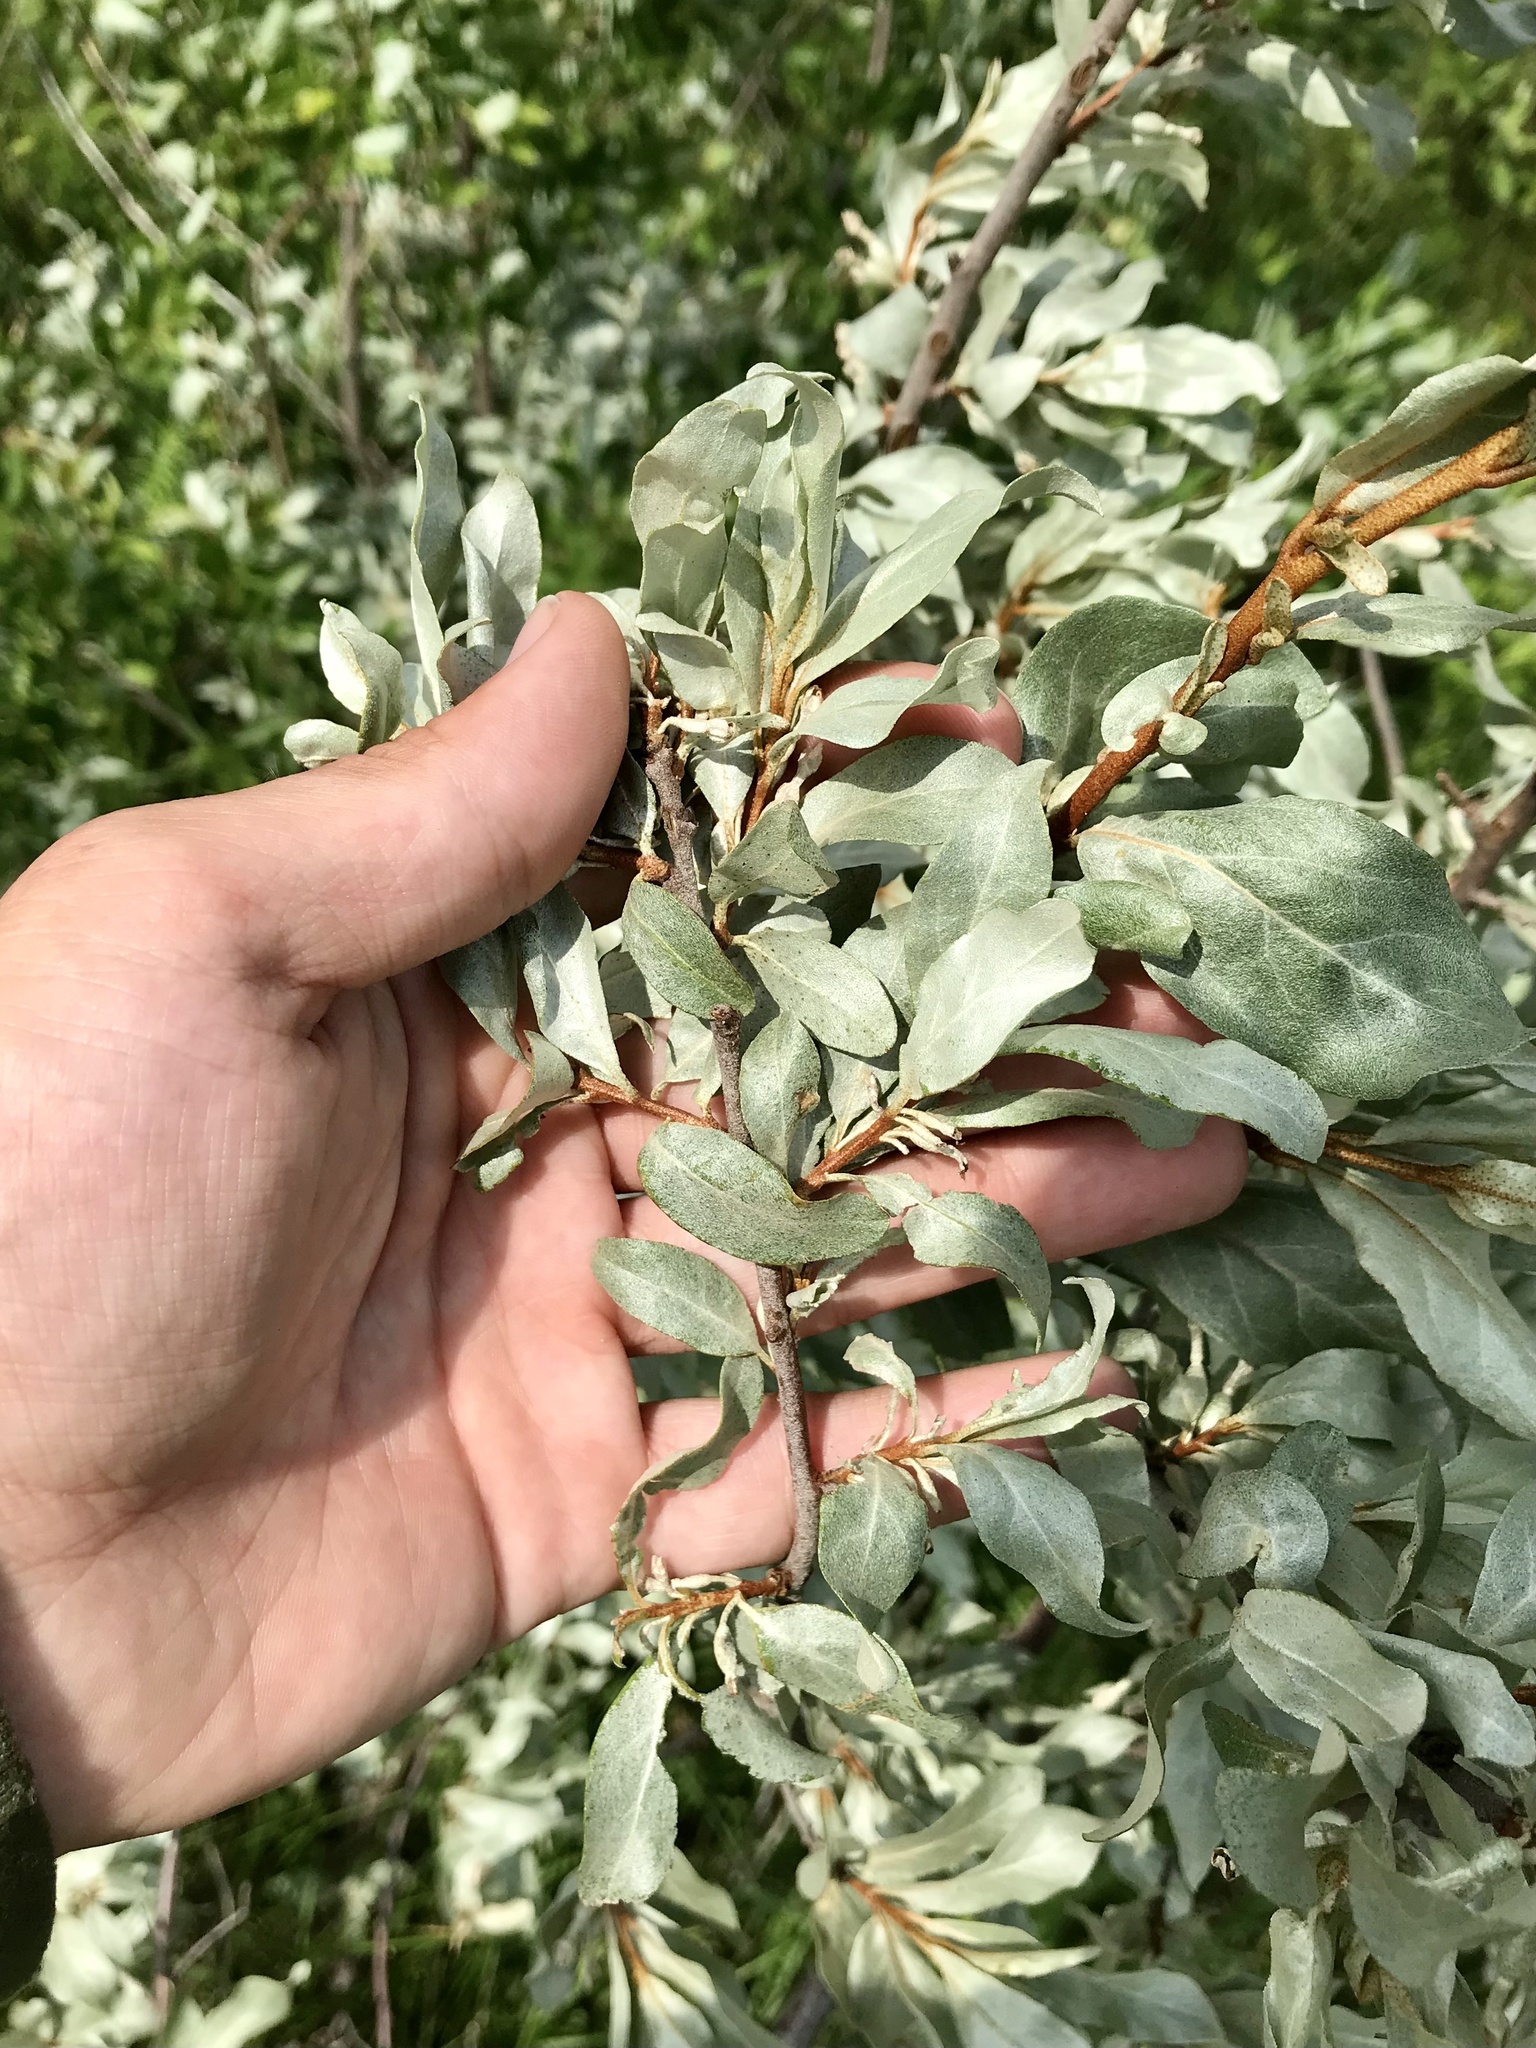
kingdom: Plantae
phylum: Tracheophyta
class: Magnoliopsida
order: Rosales
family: Elaeagnaceae
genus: Elaeagnus
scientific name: Elaeagnus commutata
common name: Silverberry
